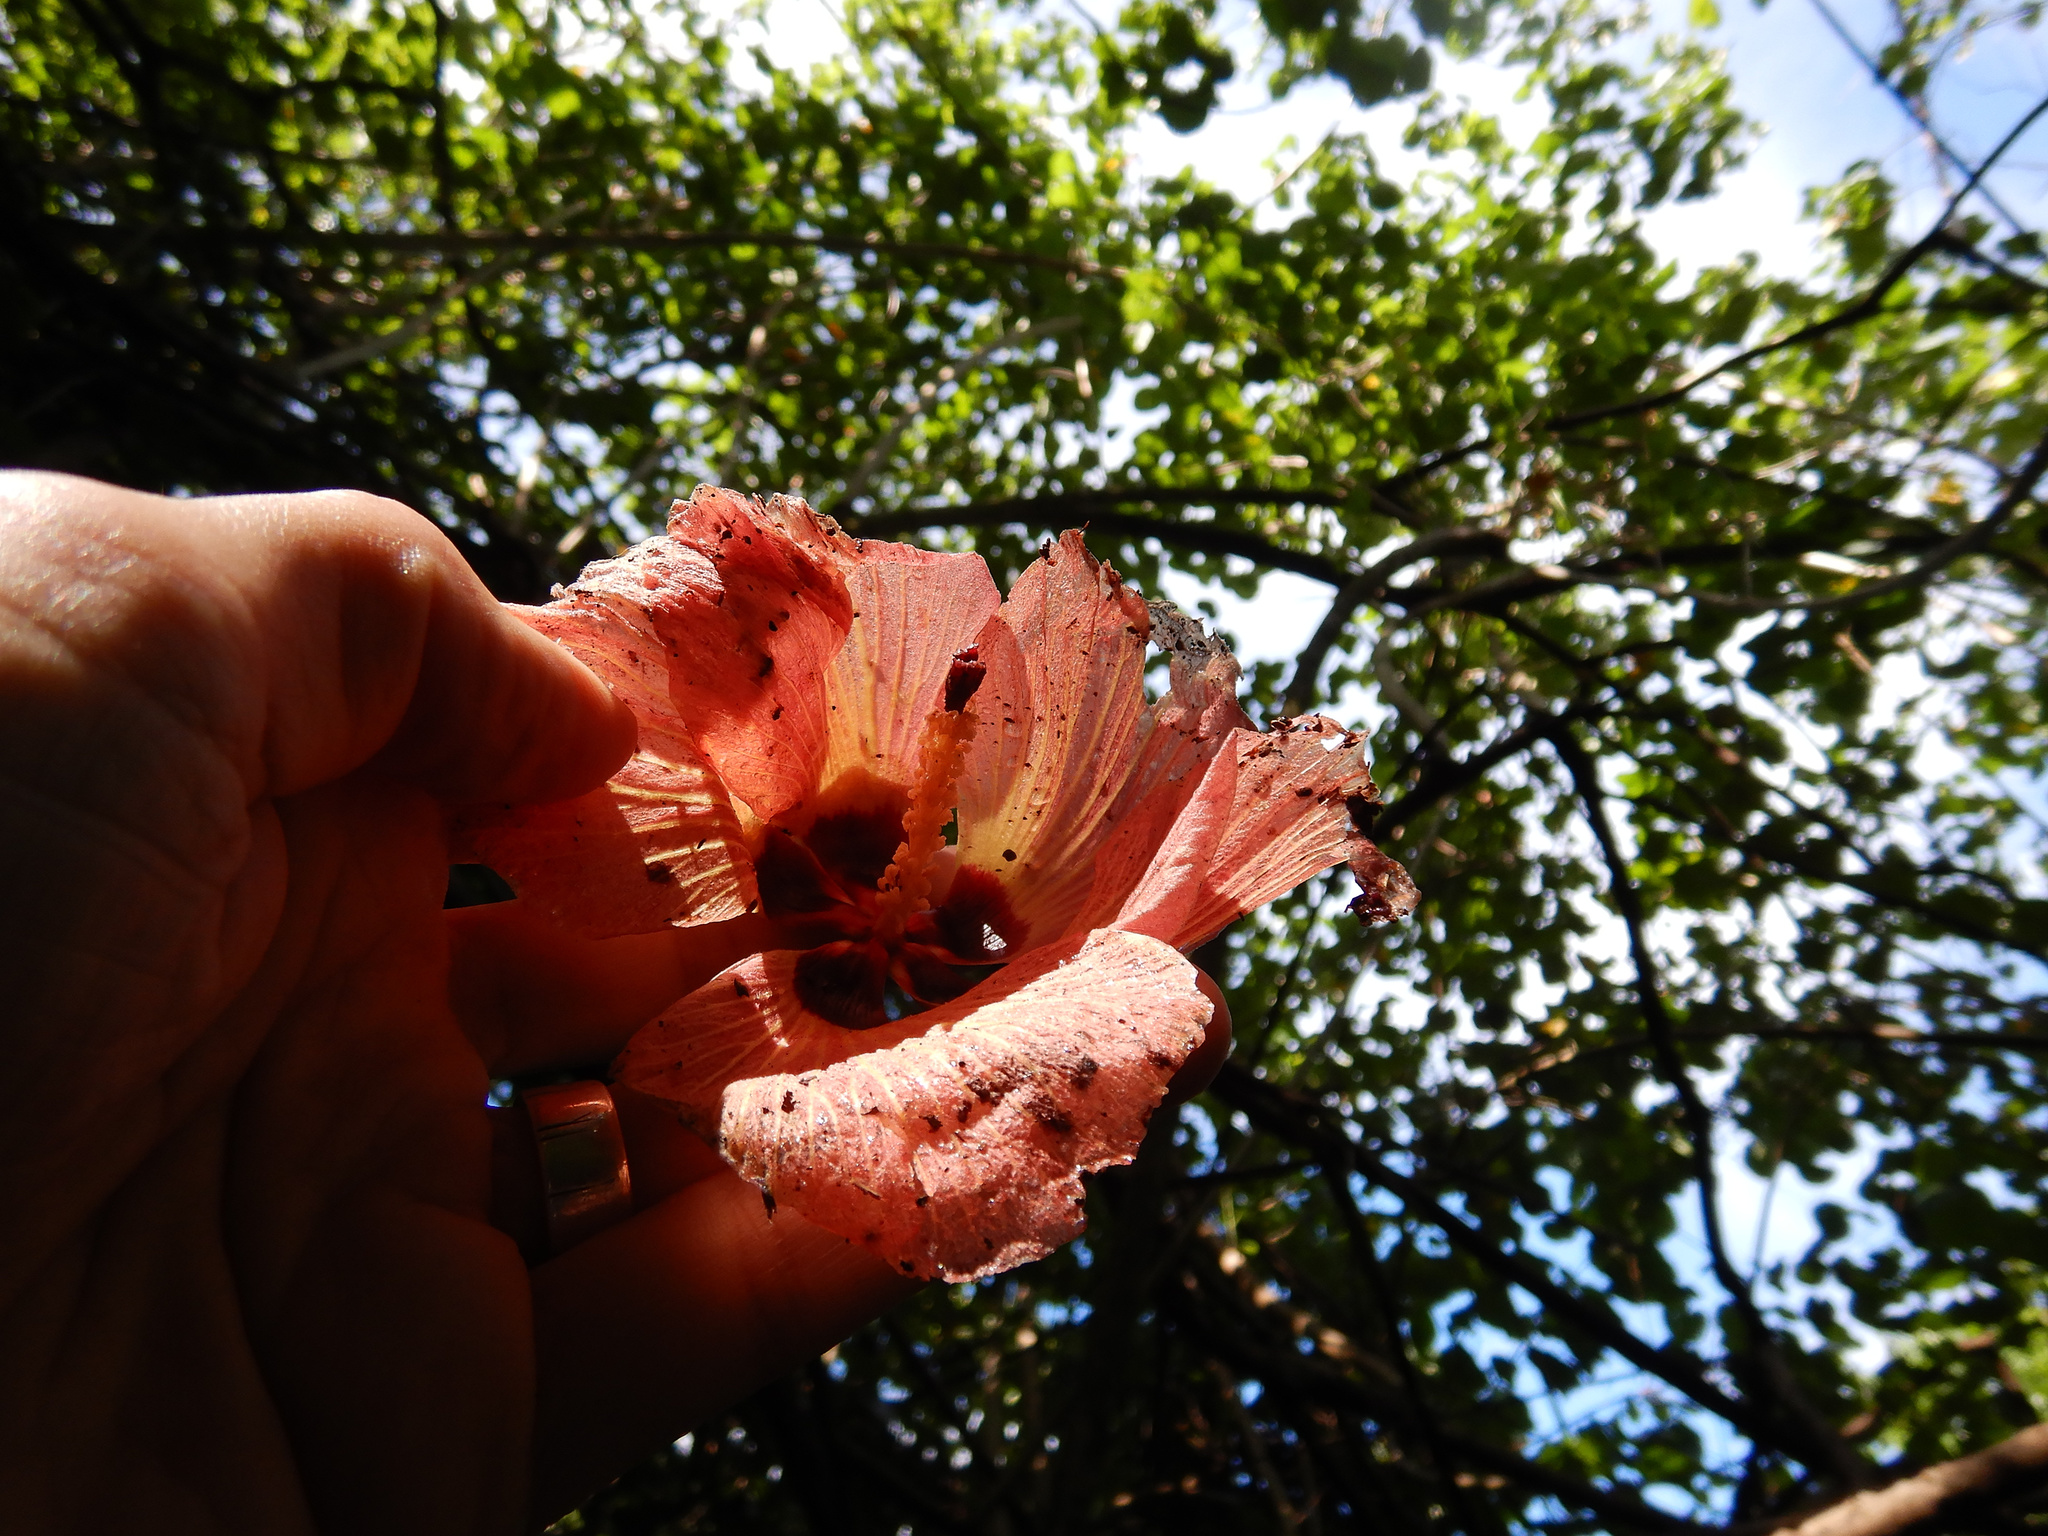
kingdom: Plantae
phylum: Tracheophyta
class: Magnoliopsida
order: Malvales
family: Malvaceae
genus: Talipariti
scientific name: Talipariti tiliaceum
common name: Sea hibiscus
